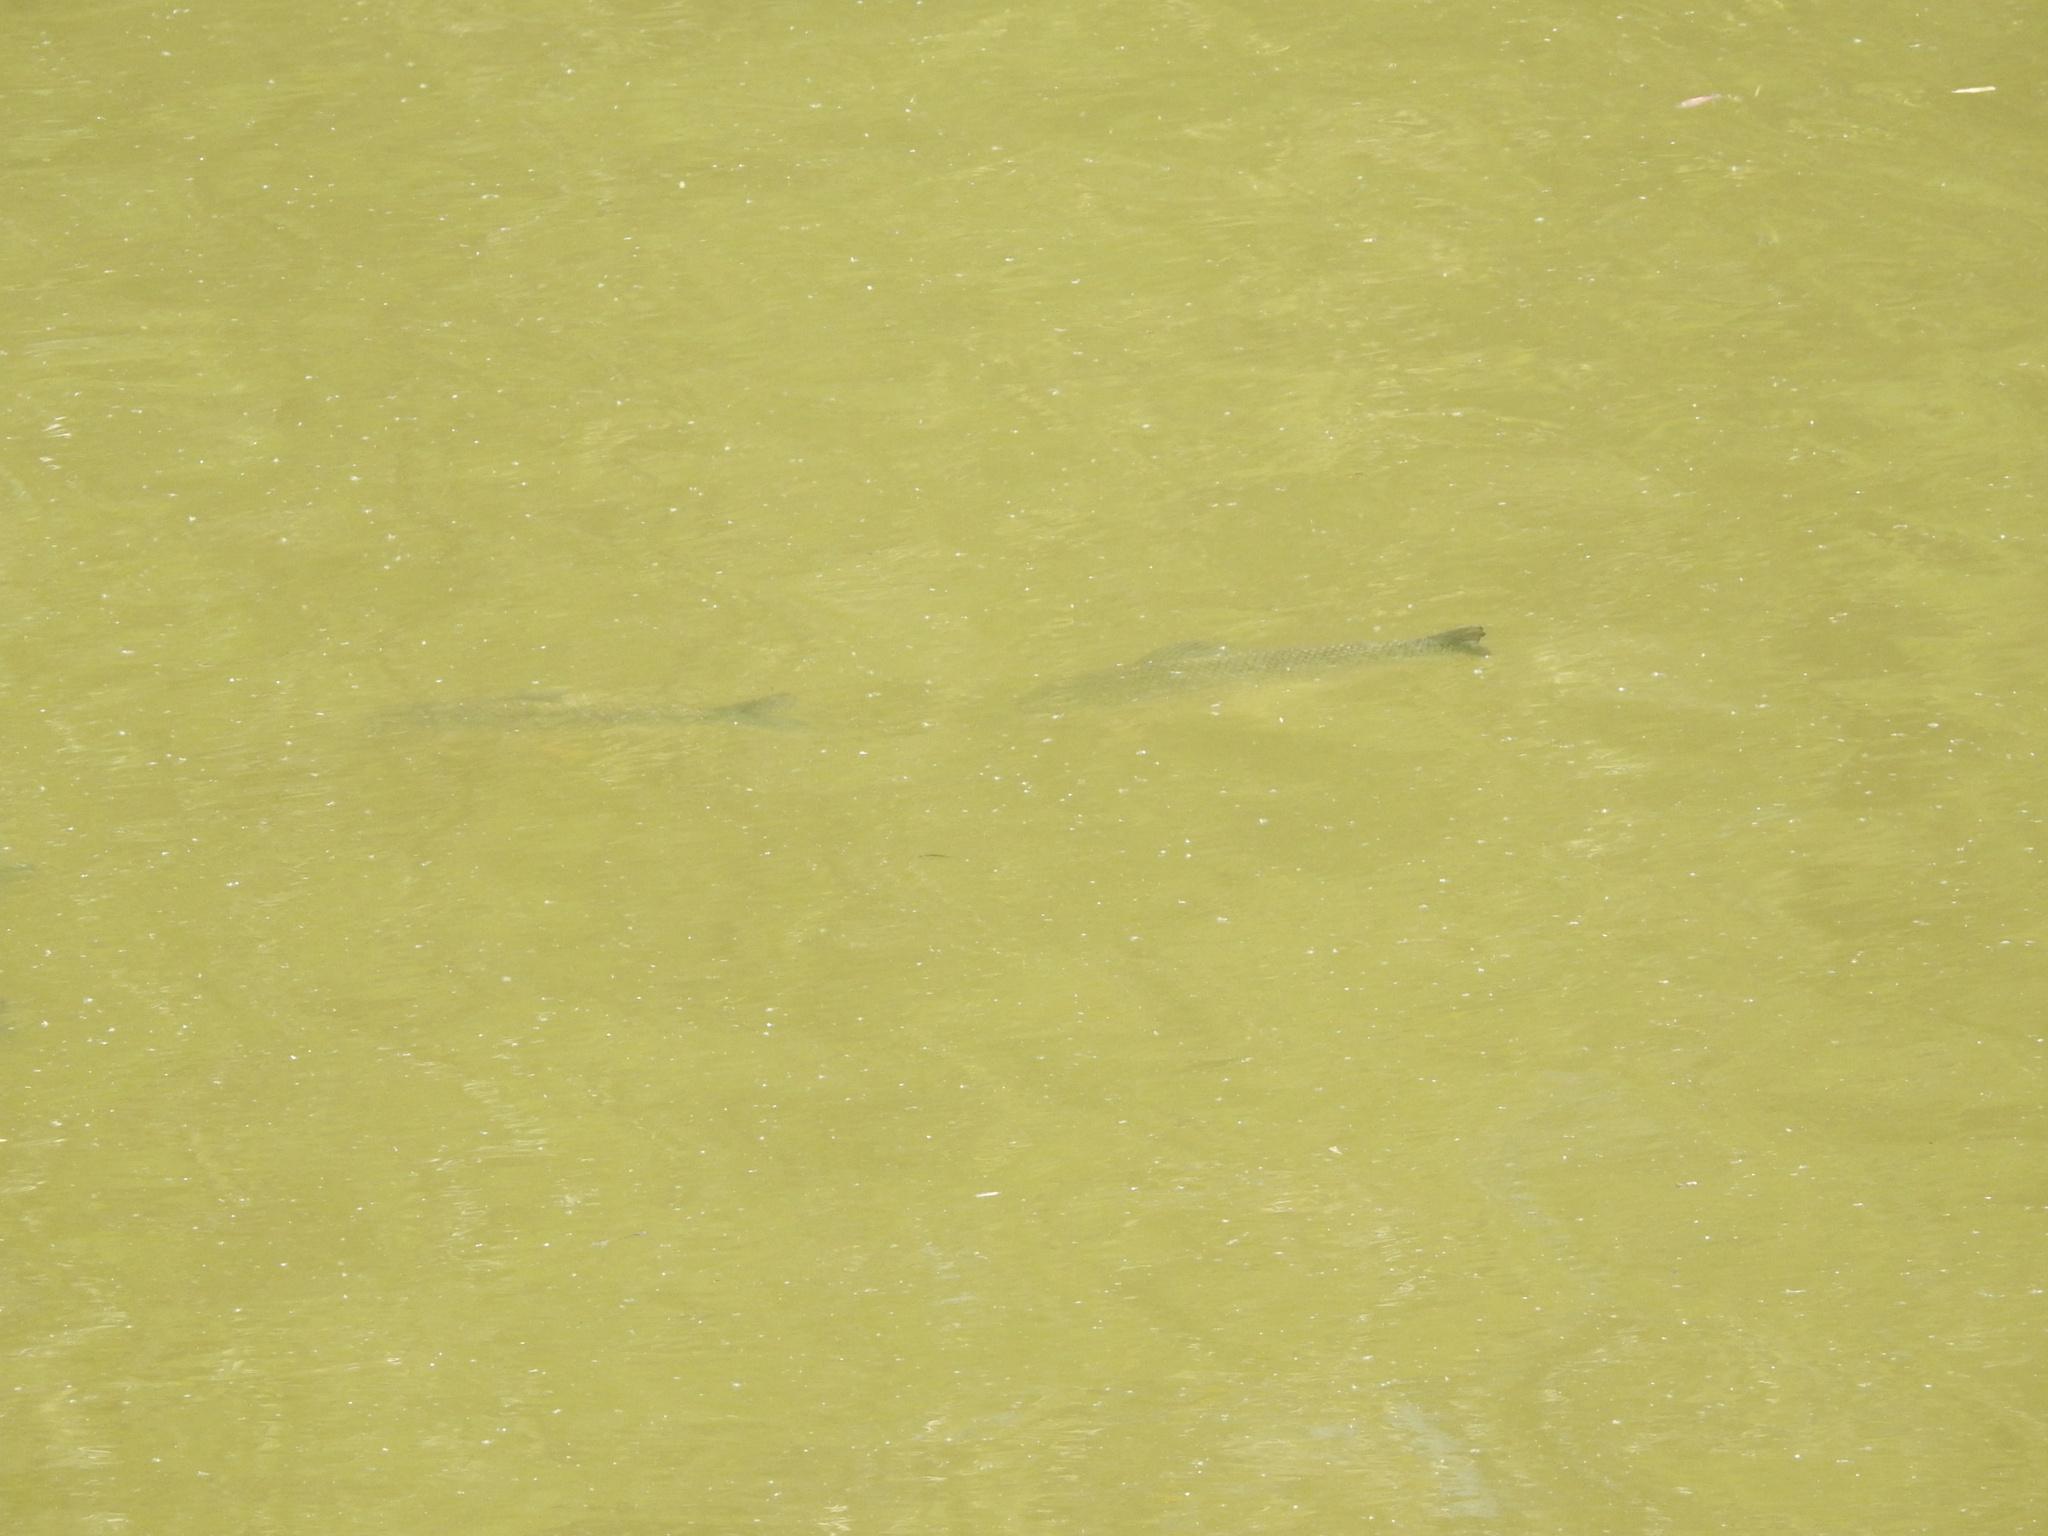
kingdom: Animalia
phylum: Chordata
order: Characiformes
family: Prochilodontidae
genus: Prochilodus
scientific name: Prochilodus lineatus
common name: Curimbata
